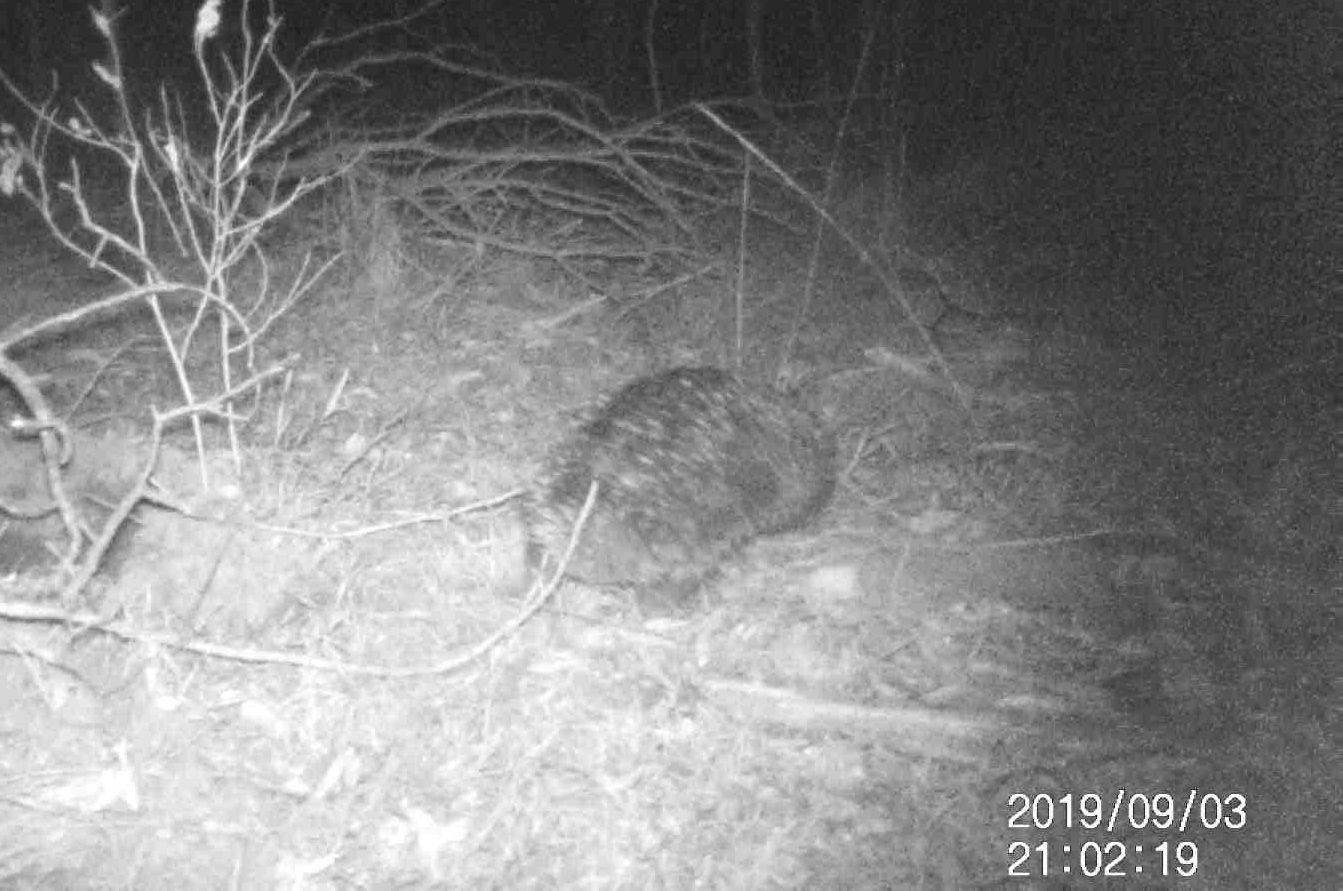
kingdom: Animalia
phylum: Chordata
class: Mammalia
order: Monotremata
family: Tachyglossidae
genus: Tachyglossus
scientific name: Tachyglossus aculeatus
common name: Short-beaked echidna
